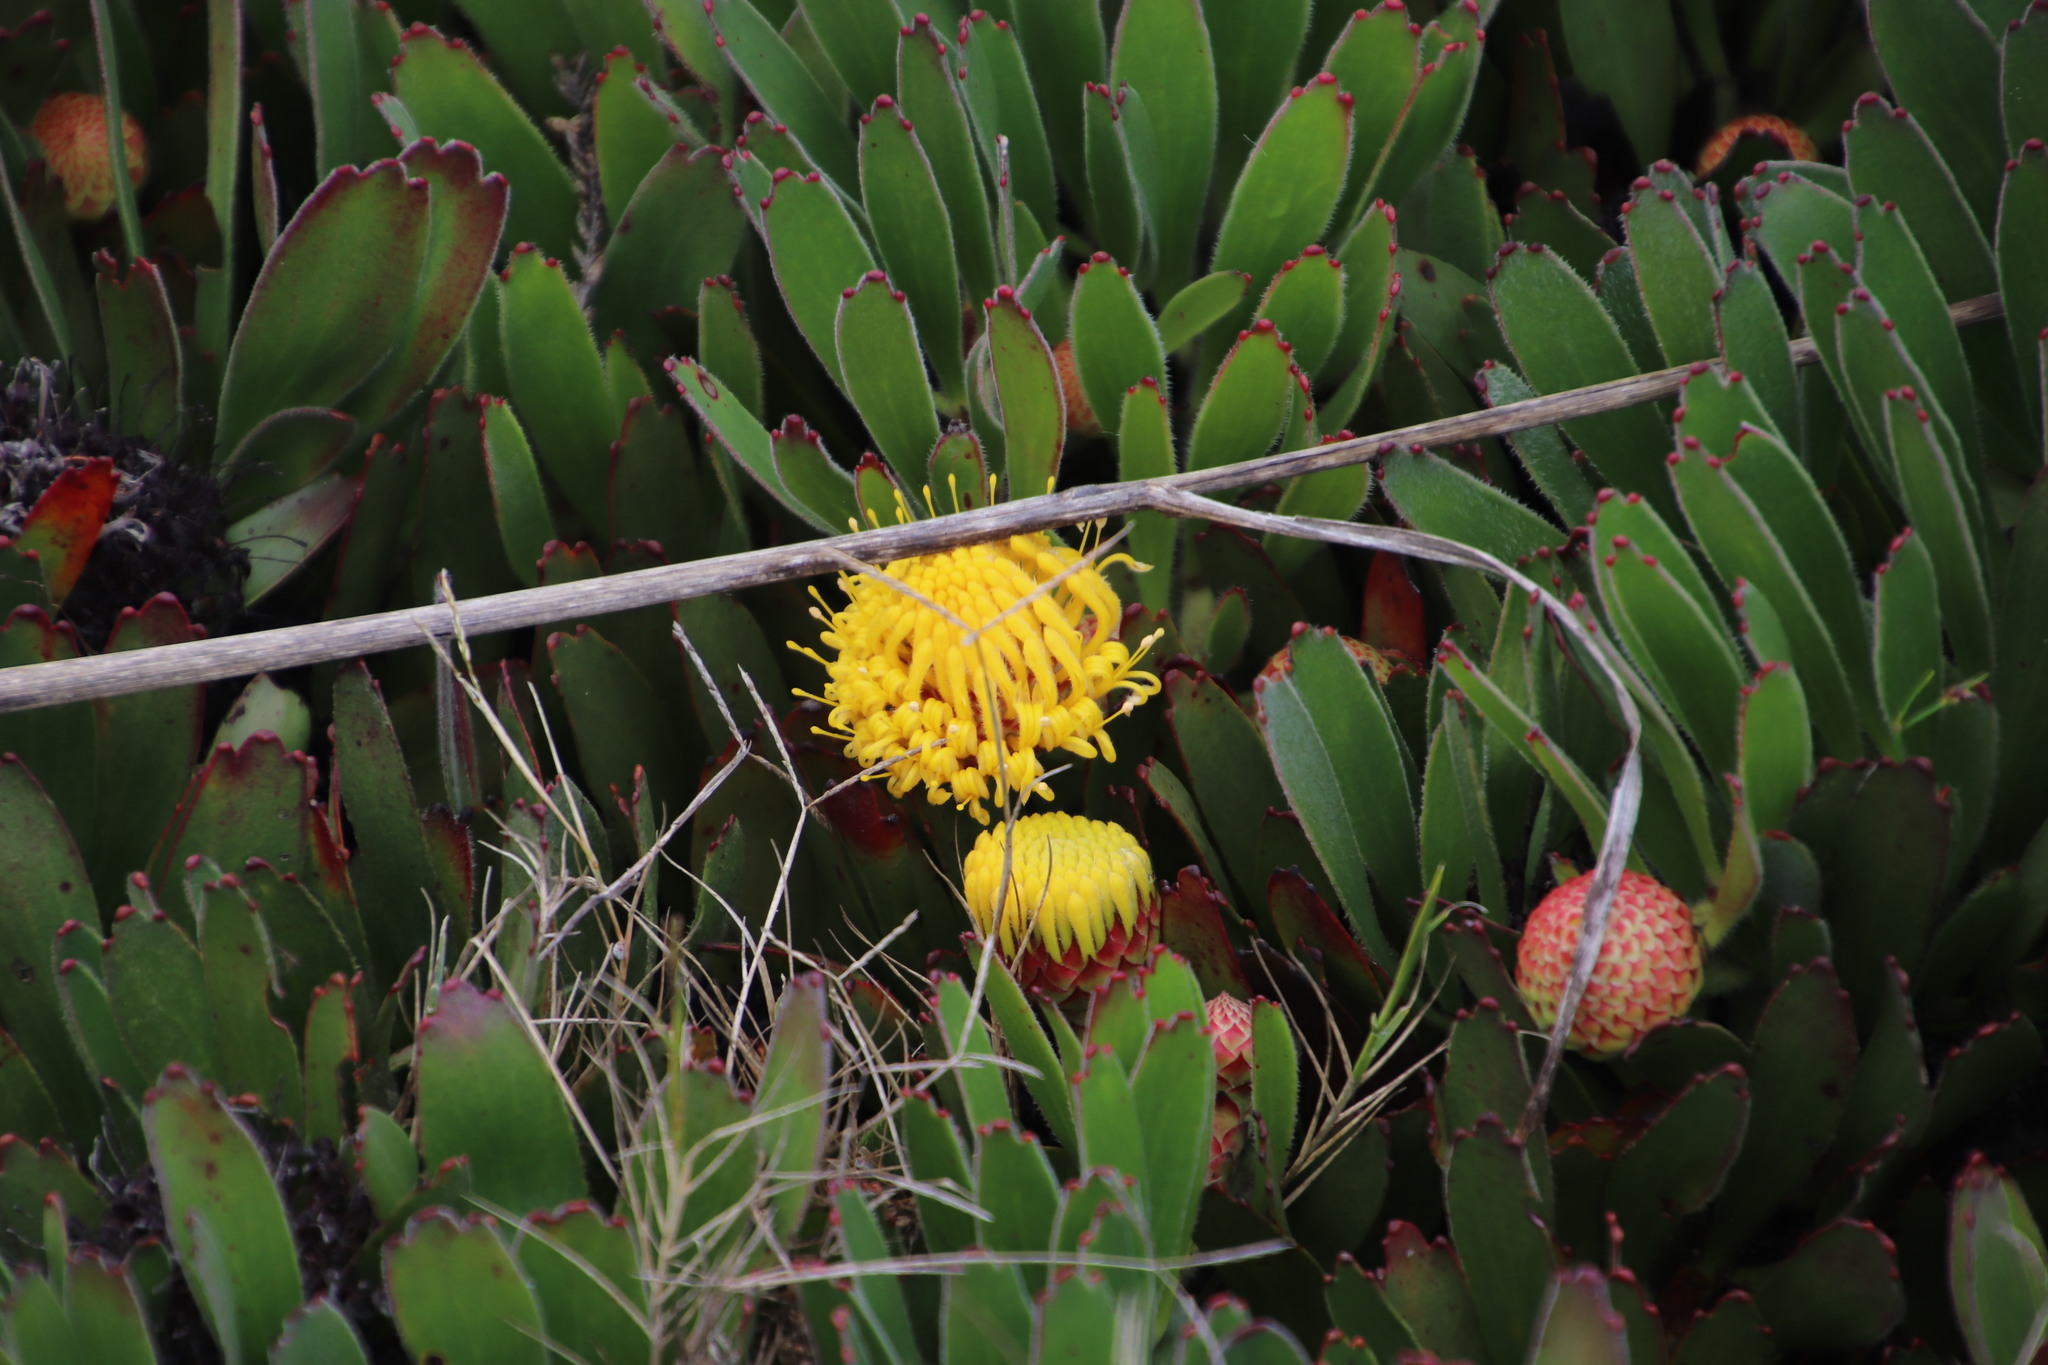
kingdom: Plantae
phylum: Tracheophyta
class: Magnoliopsida
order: Proteales
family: Proteaceae
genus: Leucospermum
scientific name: Leucospermum hypophyllocarpodendron
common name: Snakestem pincushion
